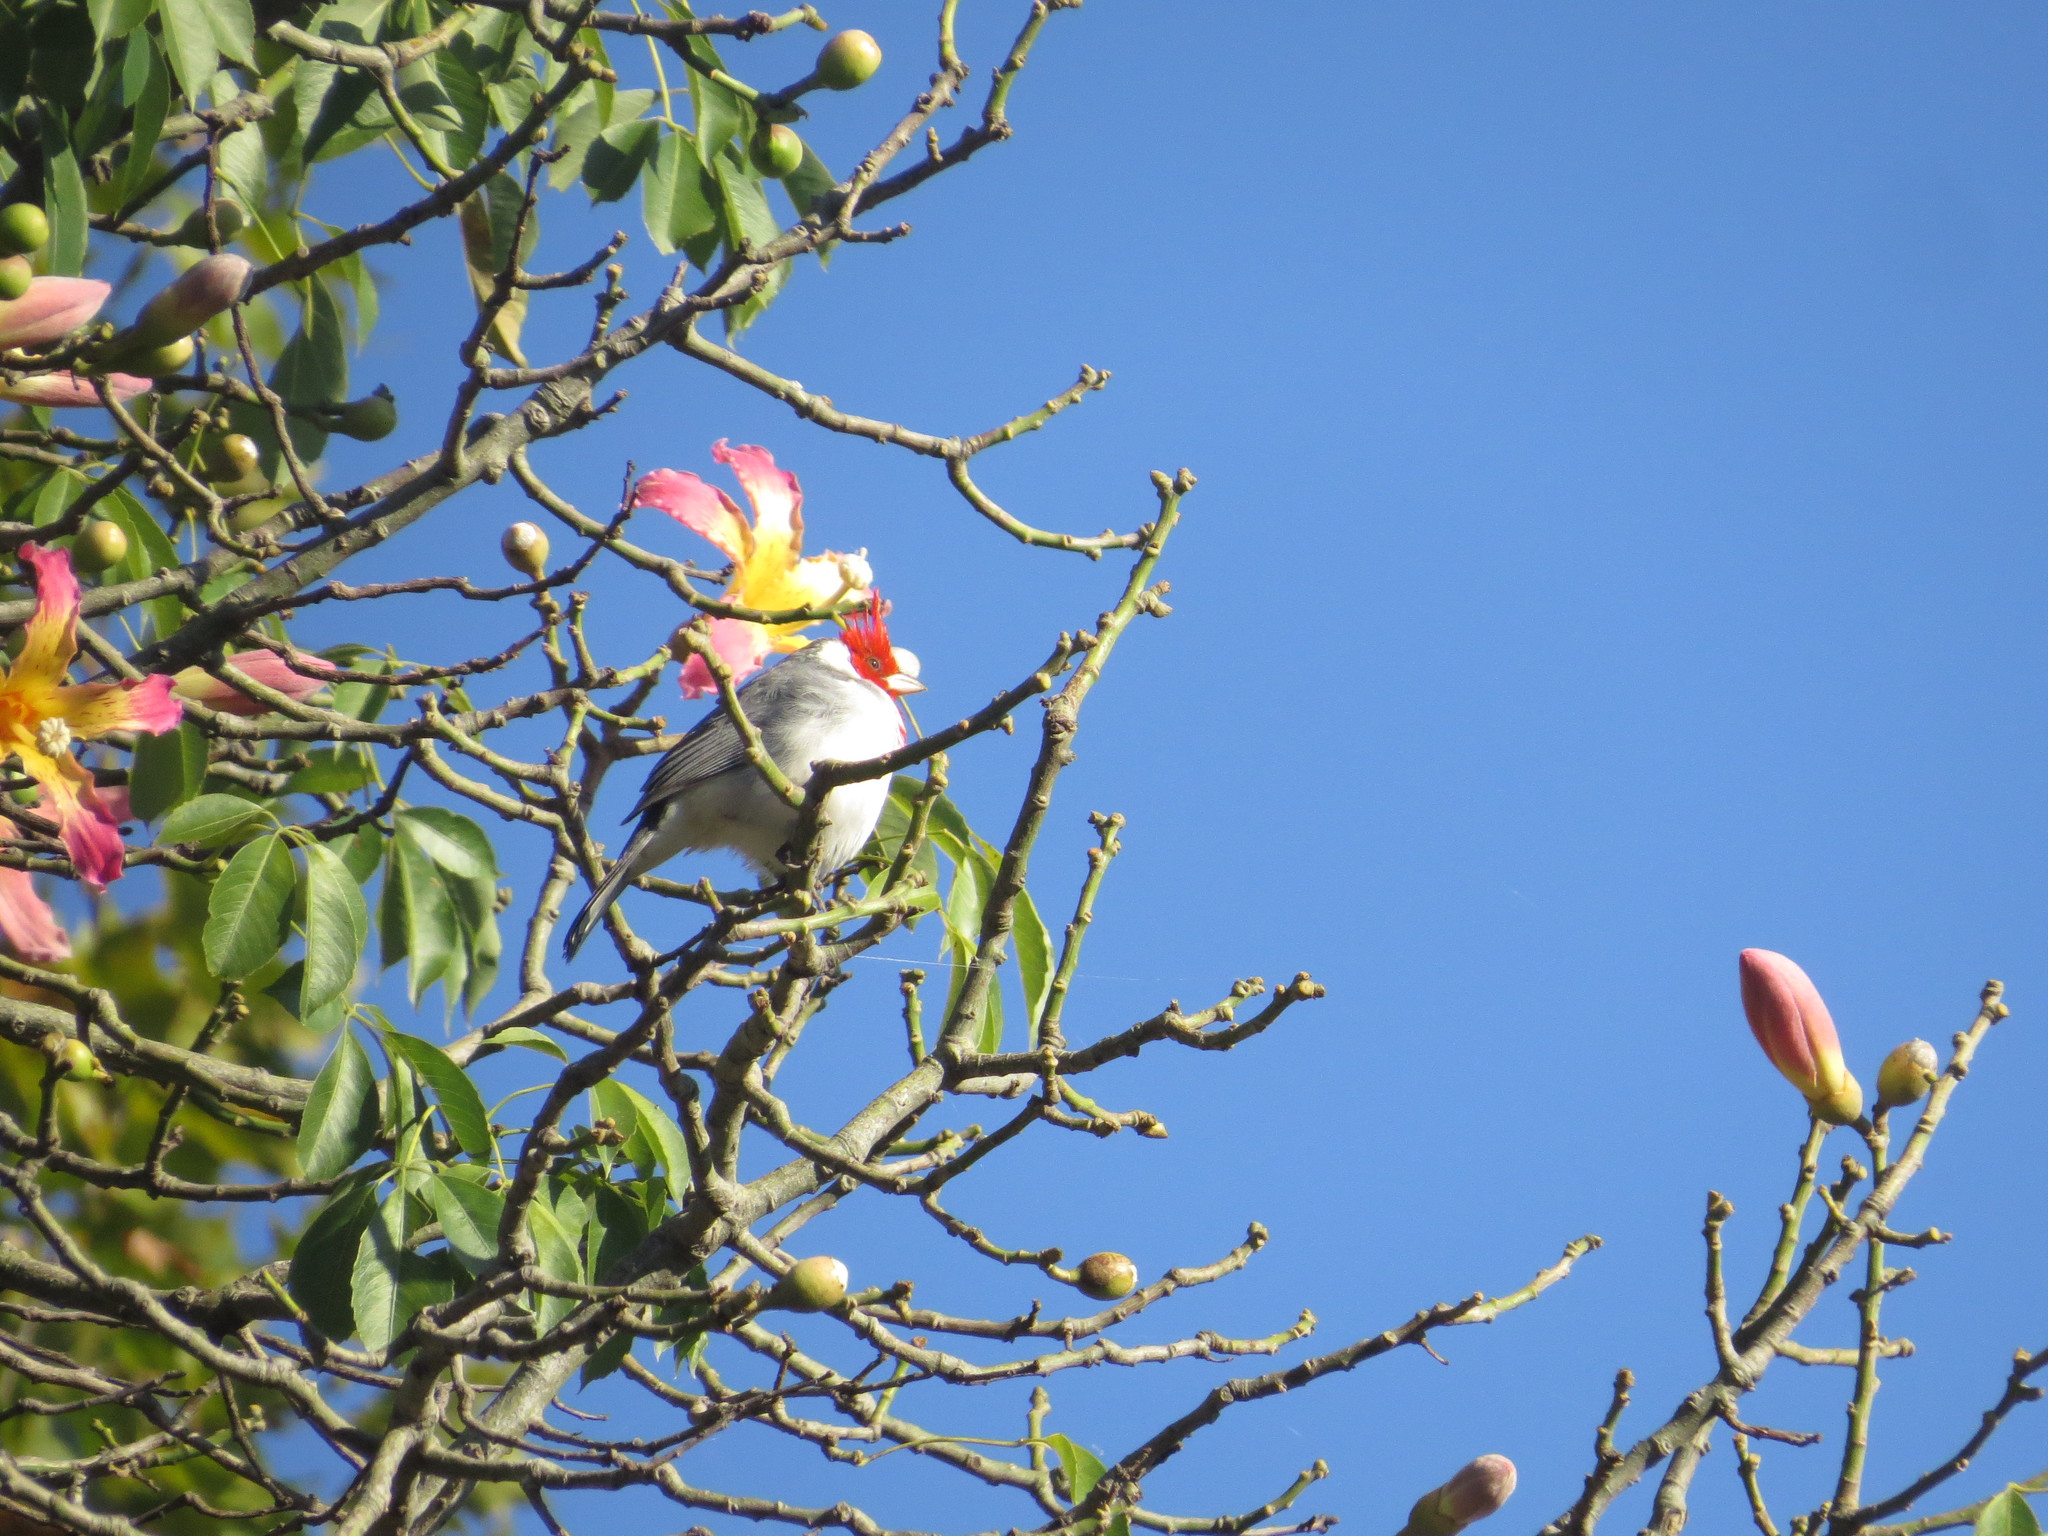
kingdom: Animalia
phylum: Chordata
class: Aves
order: Passeriformes
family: Thraupidae
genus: Paroaria
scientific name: Paroaria coronata
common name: Red-crested cardinal
